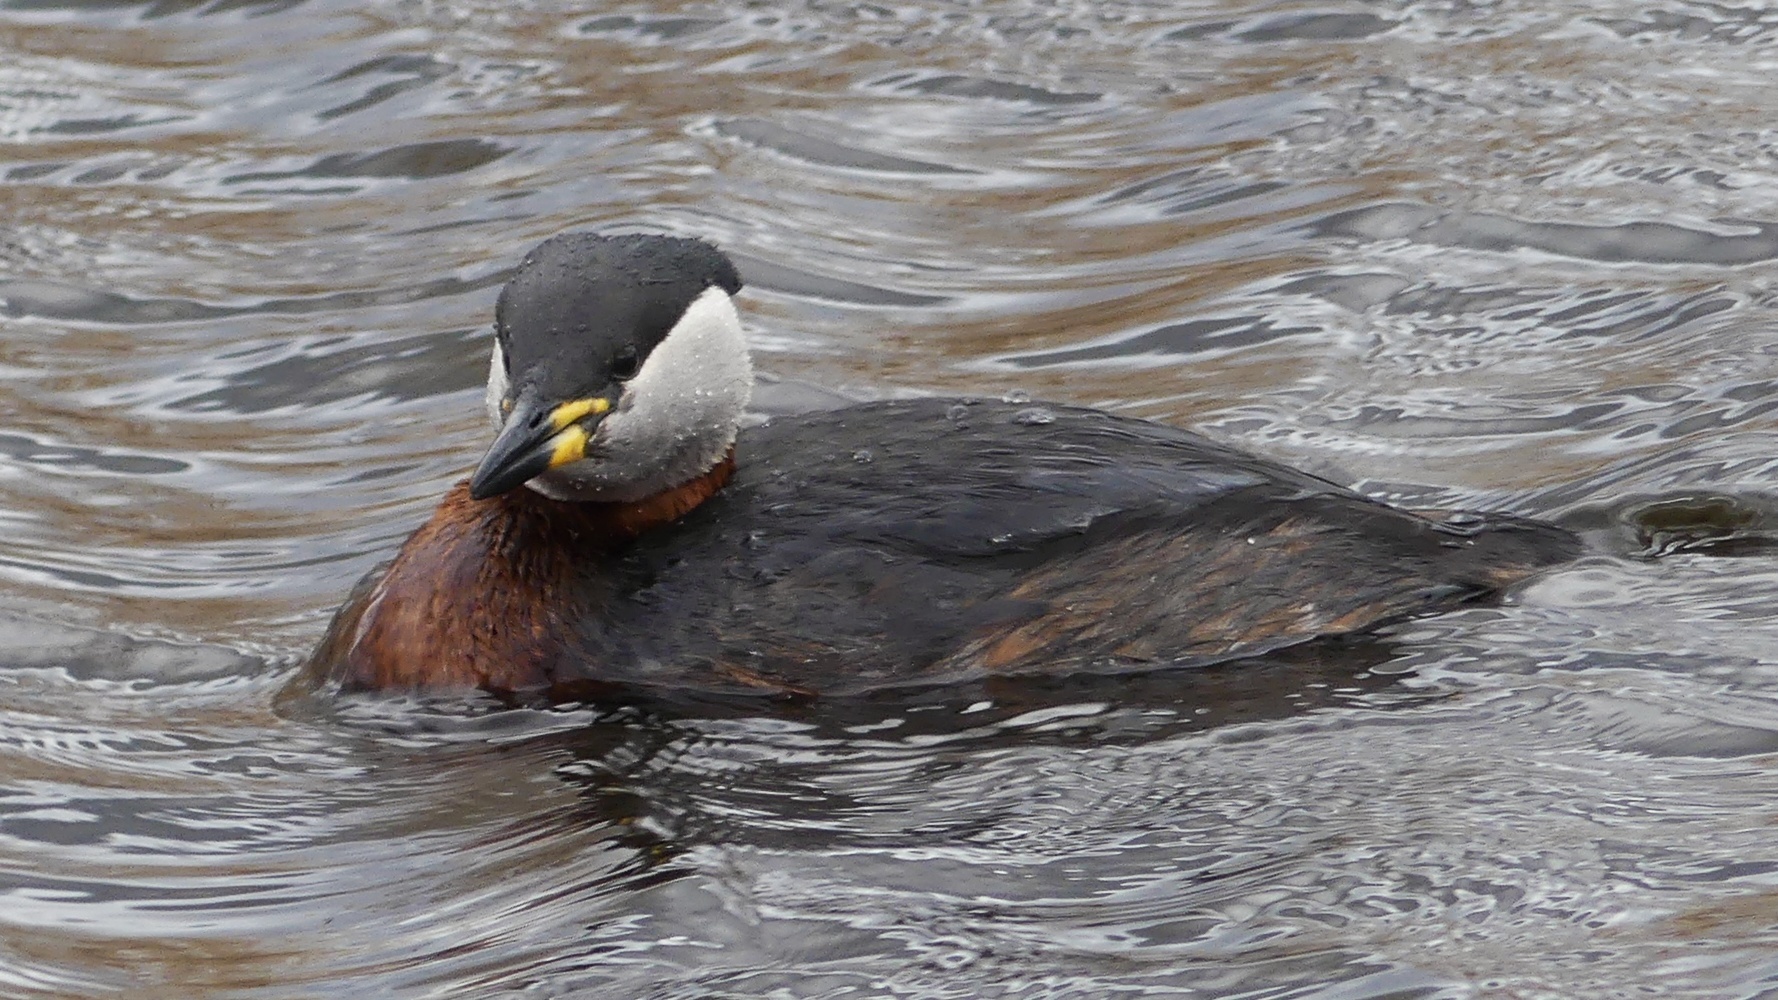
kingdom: Animalia
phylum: Chordata
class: Aves
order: Podicipediformes
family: Podicipedidae
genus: Podiceps
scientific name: Podiceps grisegena
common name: Red-necked grebe
